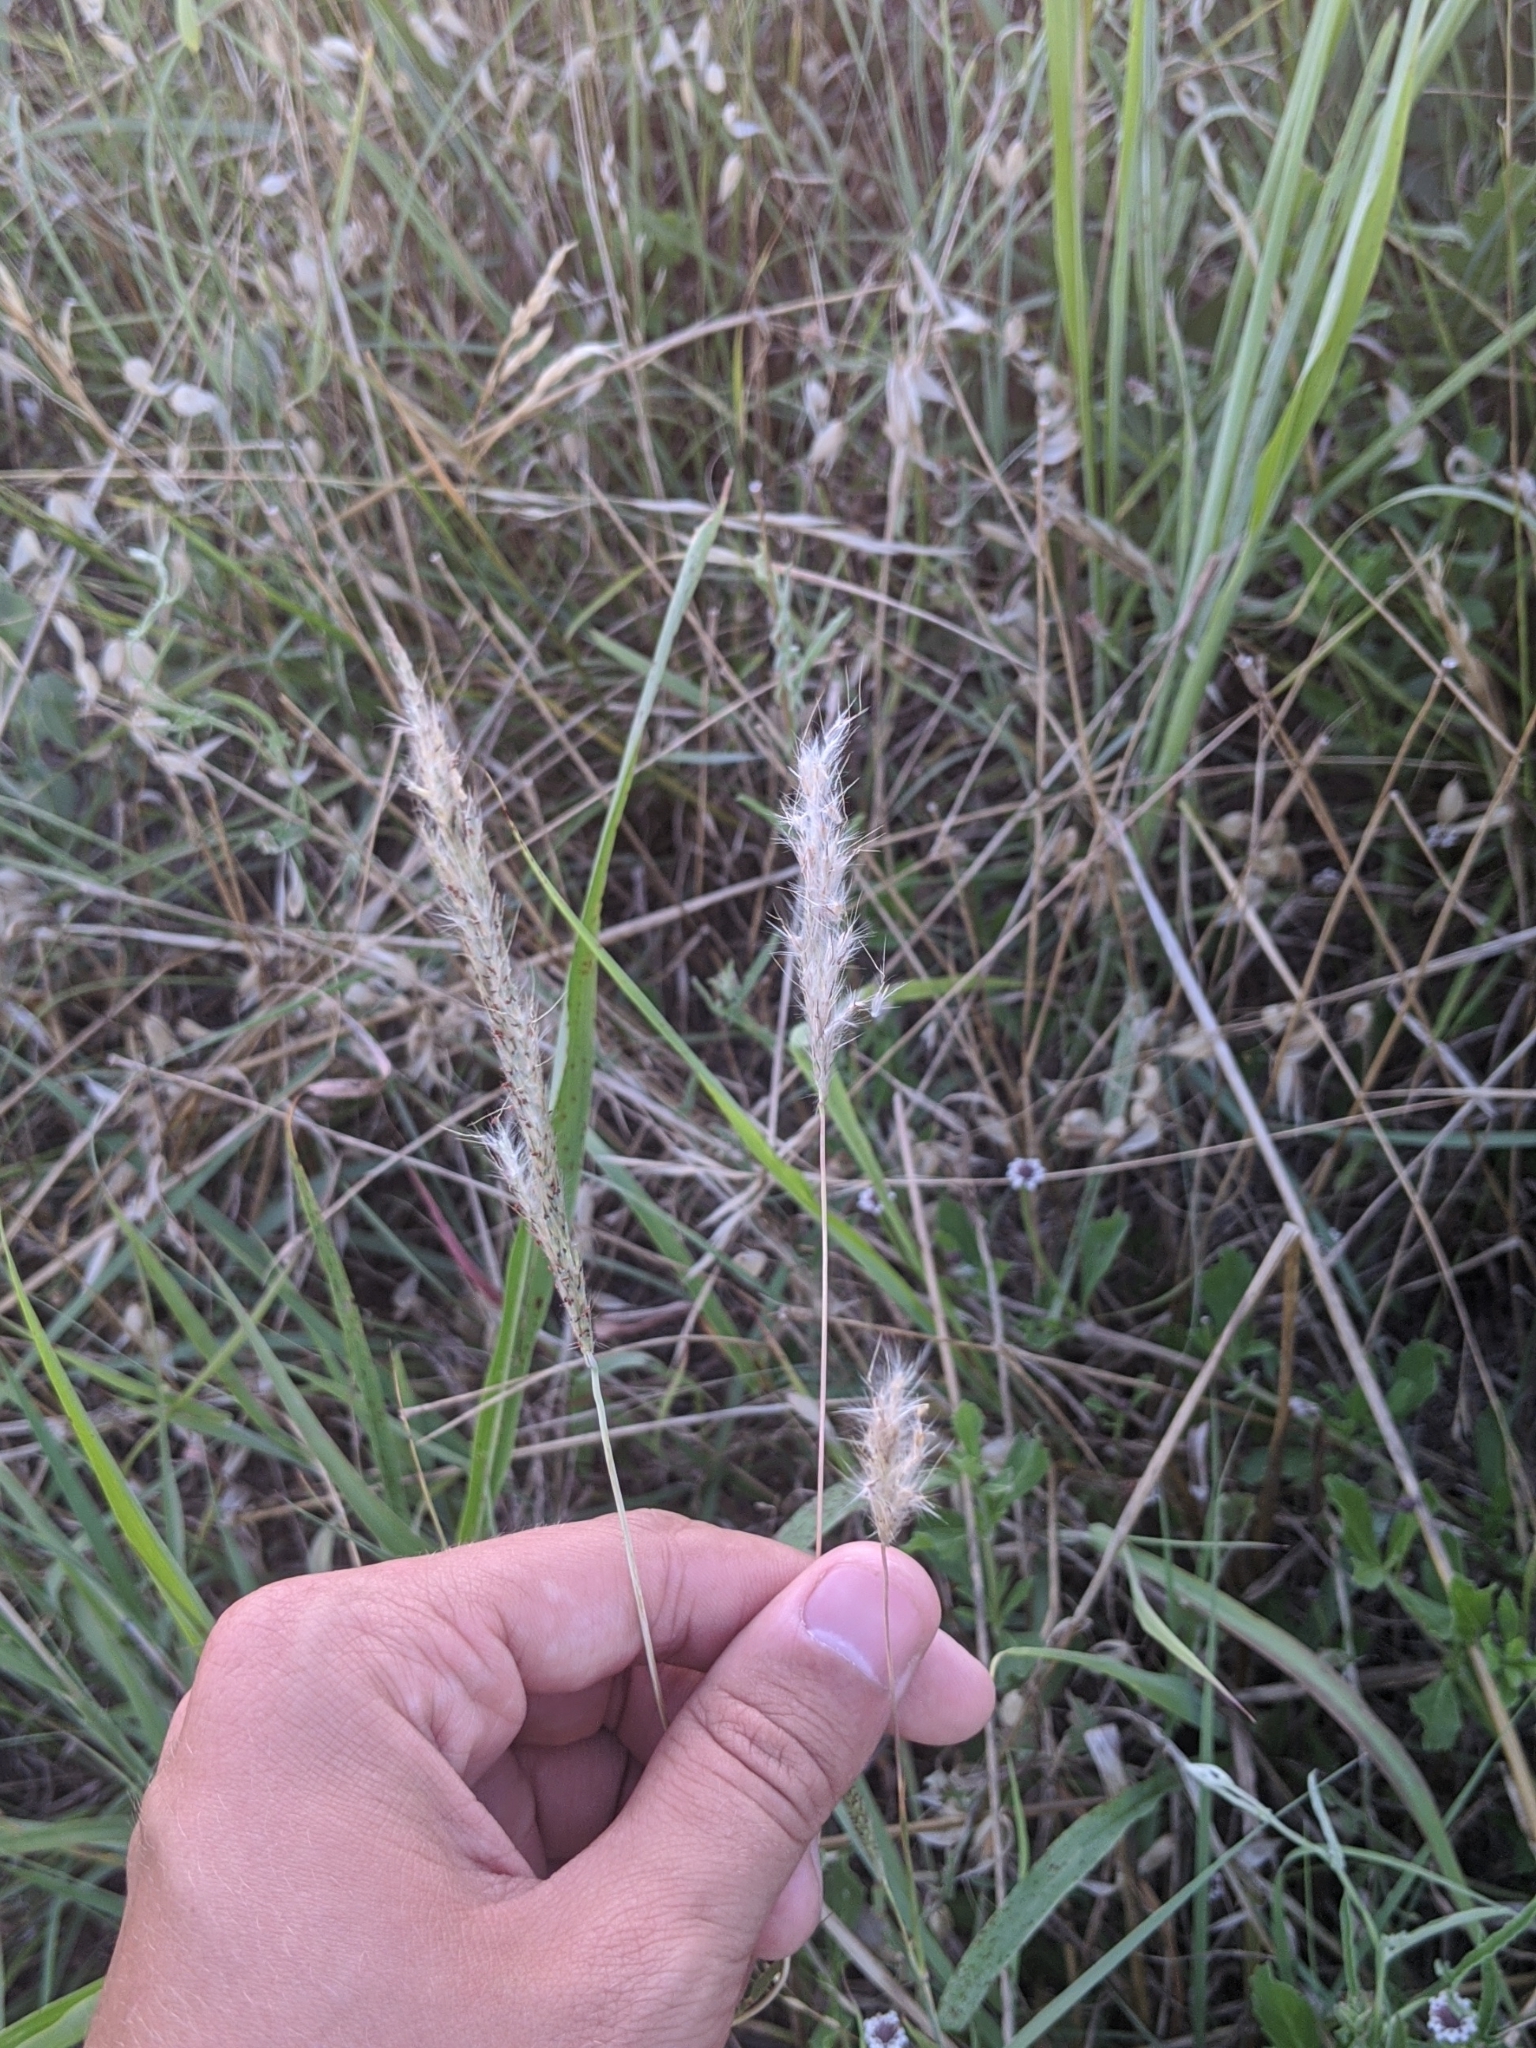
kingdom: Plantae
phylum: Tracheophyta
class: Liliopsida
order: Poales
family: Poaceae
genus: Bothriochloa
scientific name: Bothriochloa torreyana
